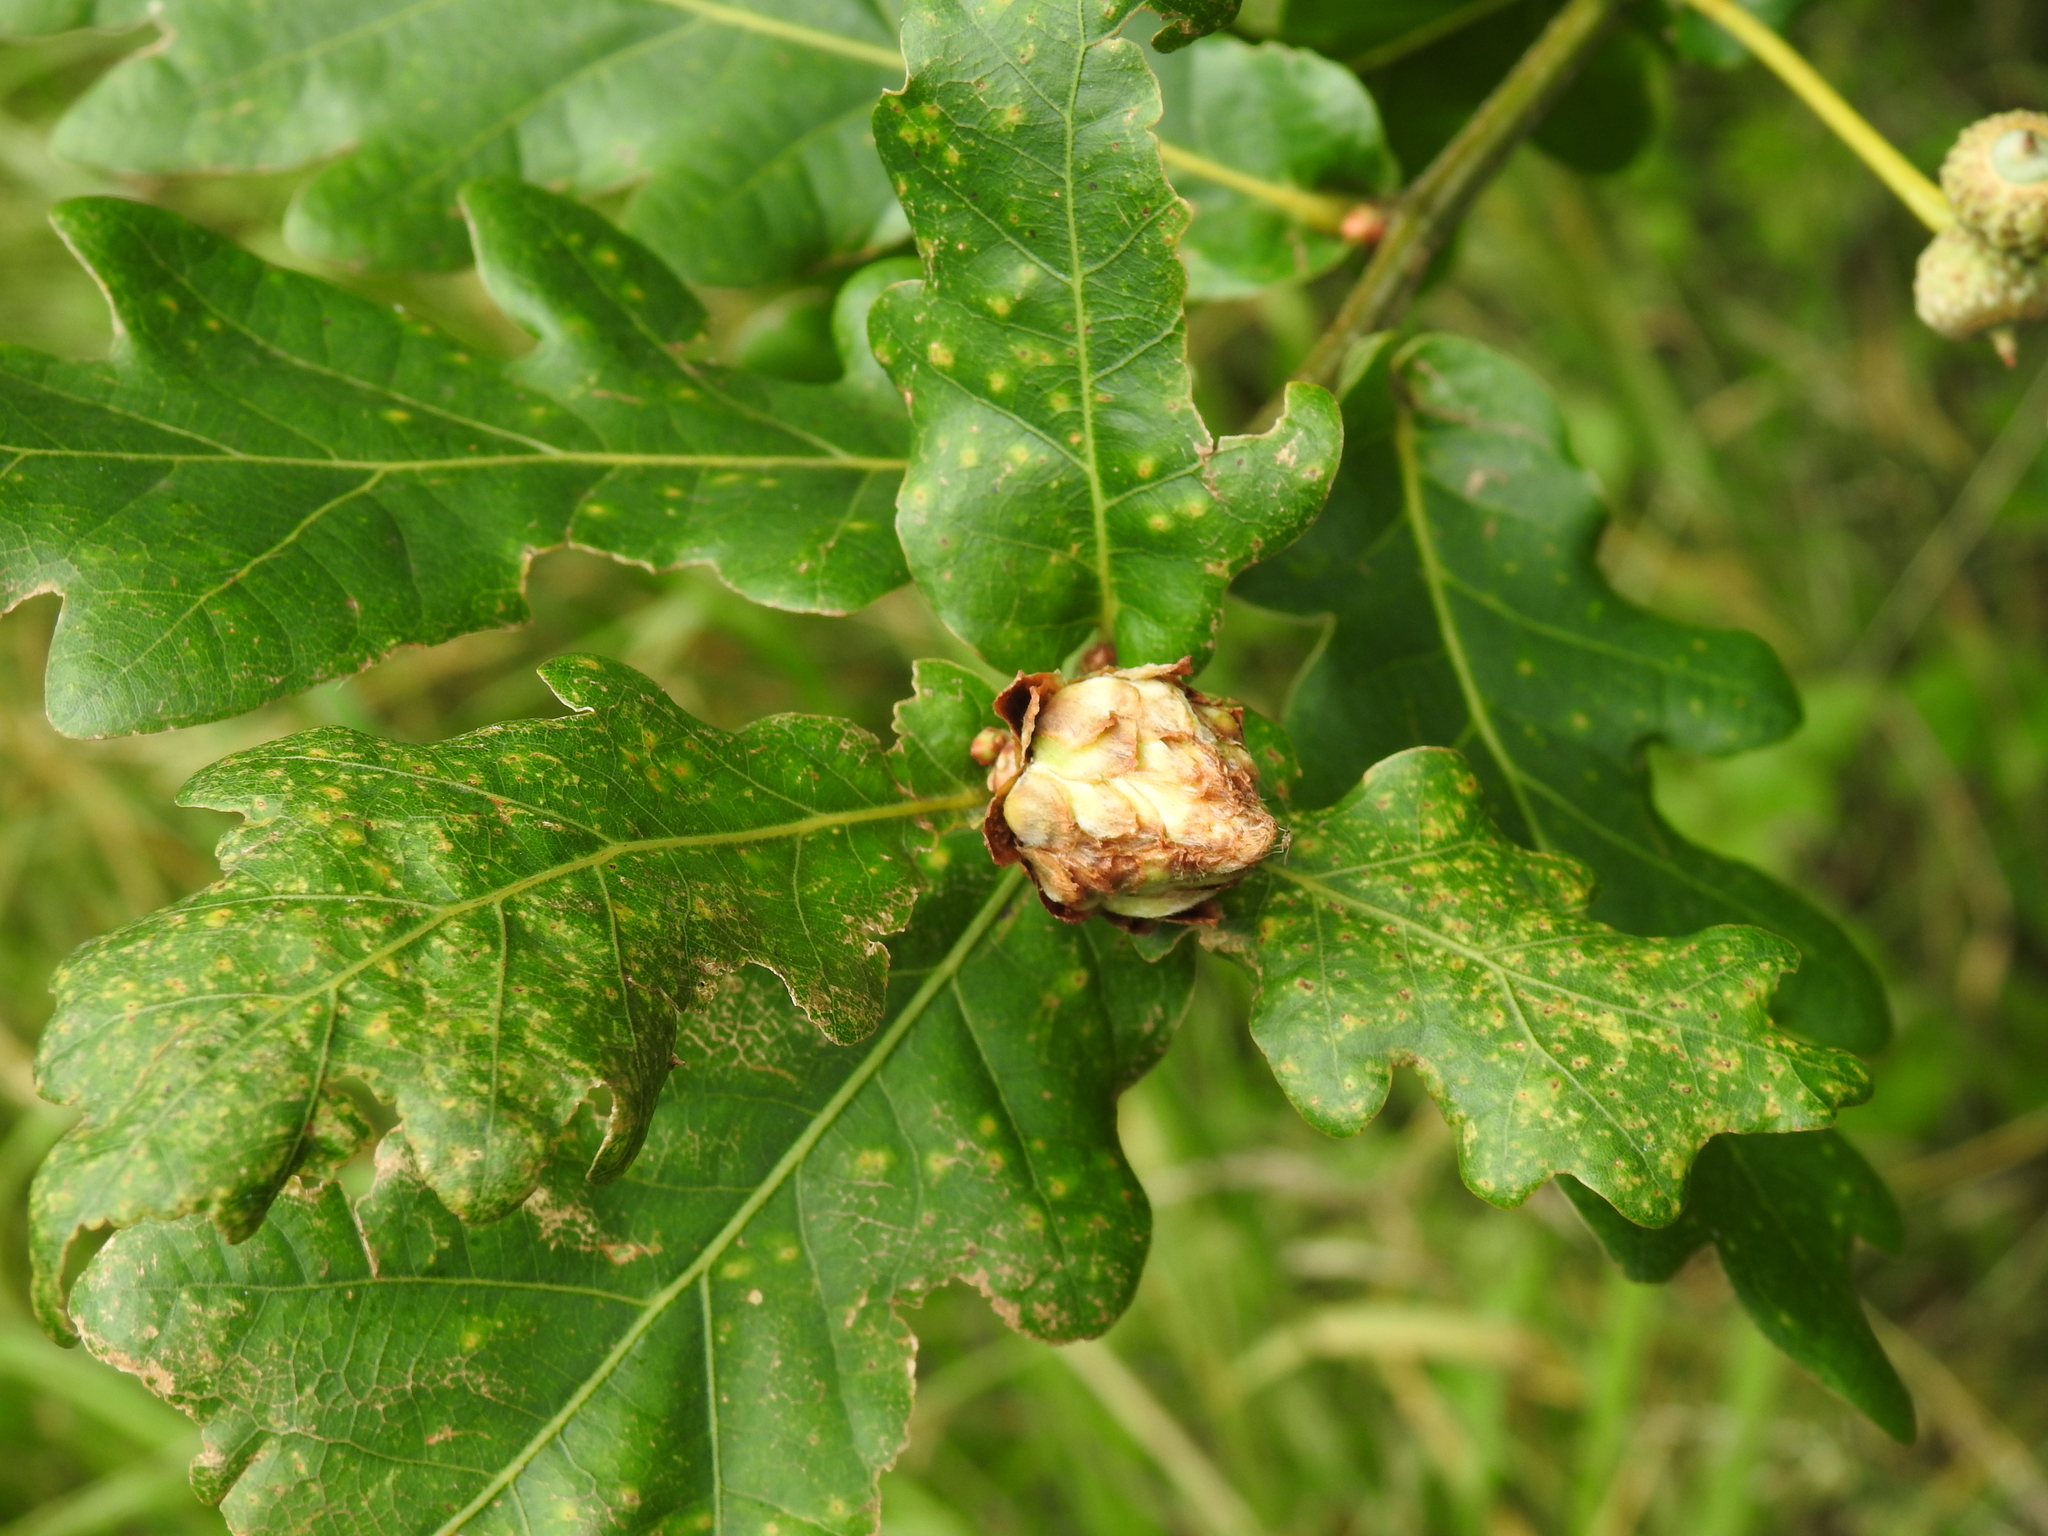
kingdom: Animalia
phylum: Arthropoda
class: Insecta
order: Hymenoptera
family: Cynipidae
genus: Andricus
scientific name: Andricus foecundatrix
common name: Artichoke gall
